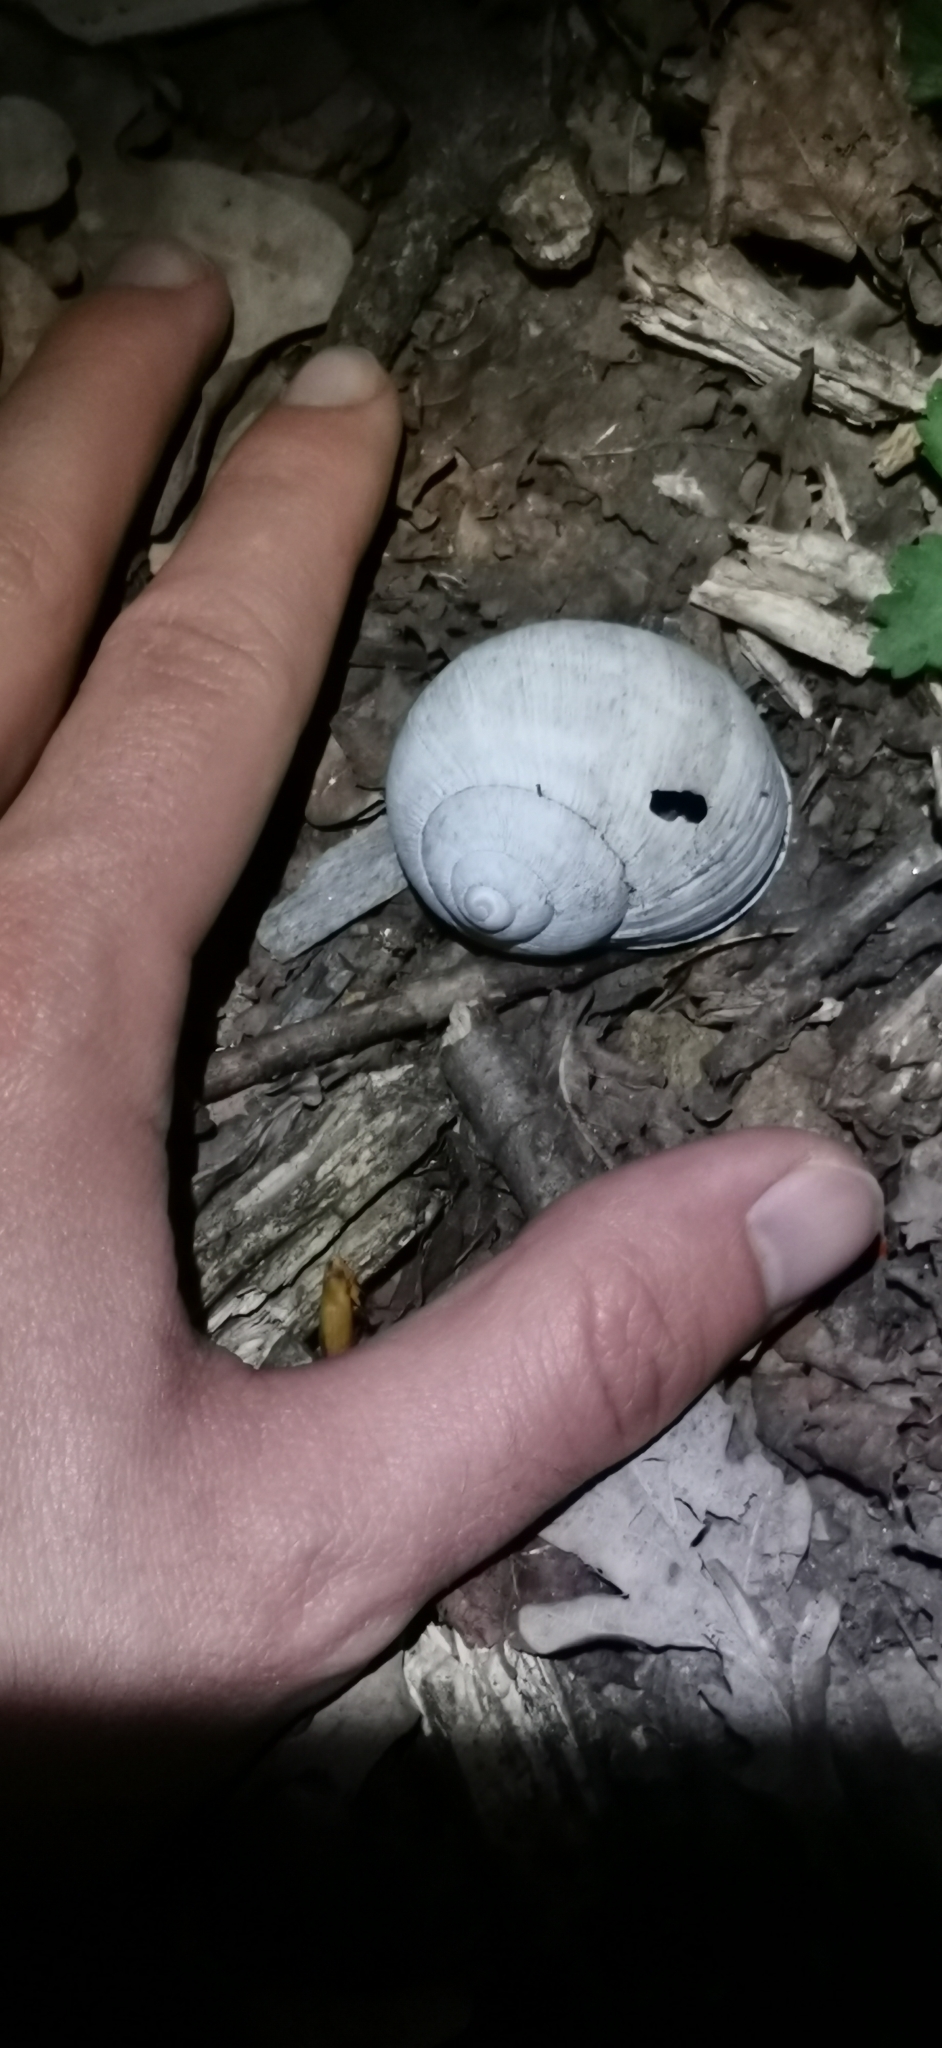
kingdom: Animalia
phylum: Mollusca
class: Gastropoda
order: Stylommatophora
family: Helicidae
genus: Helix
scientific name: Helix pomatia
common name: Roman snail
